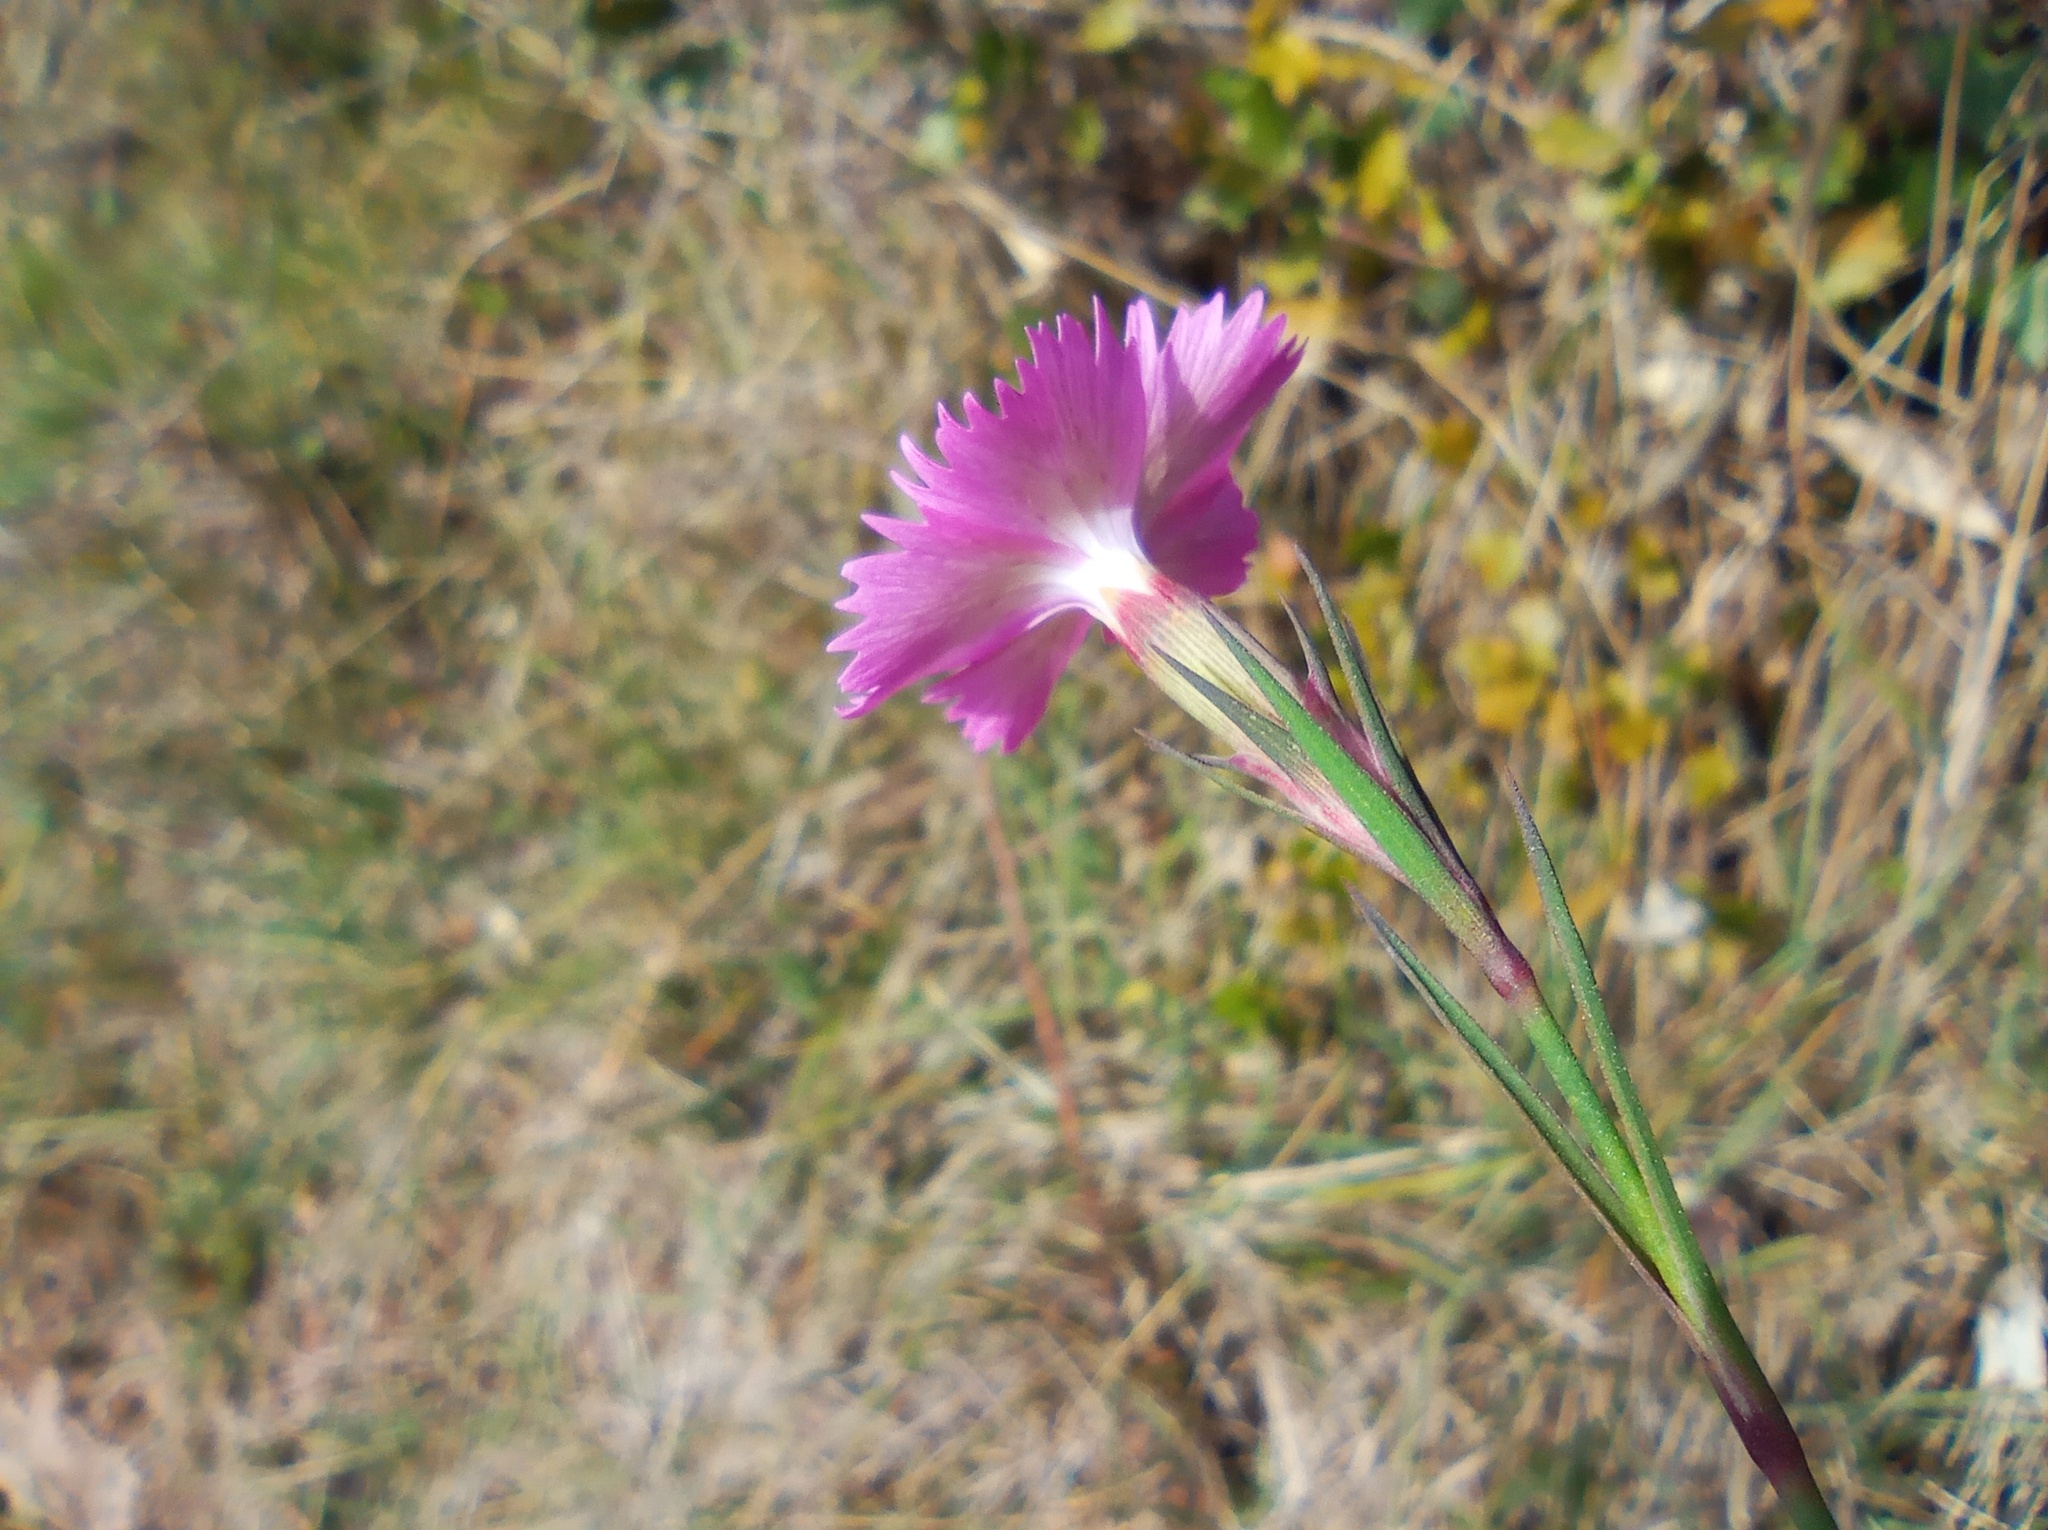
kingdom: Plantae
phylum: Tracheophyta
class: Magnoliopsida
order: Caryophyllales
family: Caryophyllaceae
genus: Dianthus
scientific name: Dianthus seguieri
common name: Ragged pink
